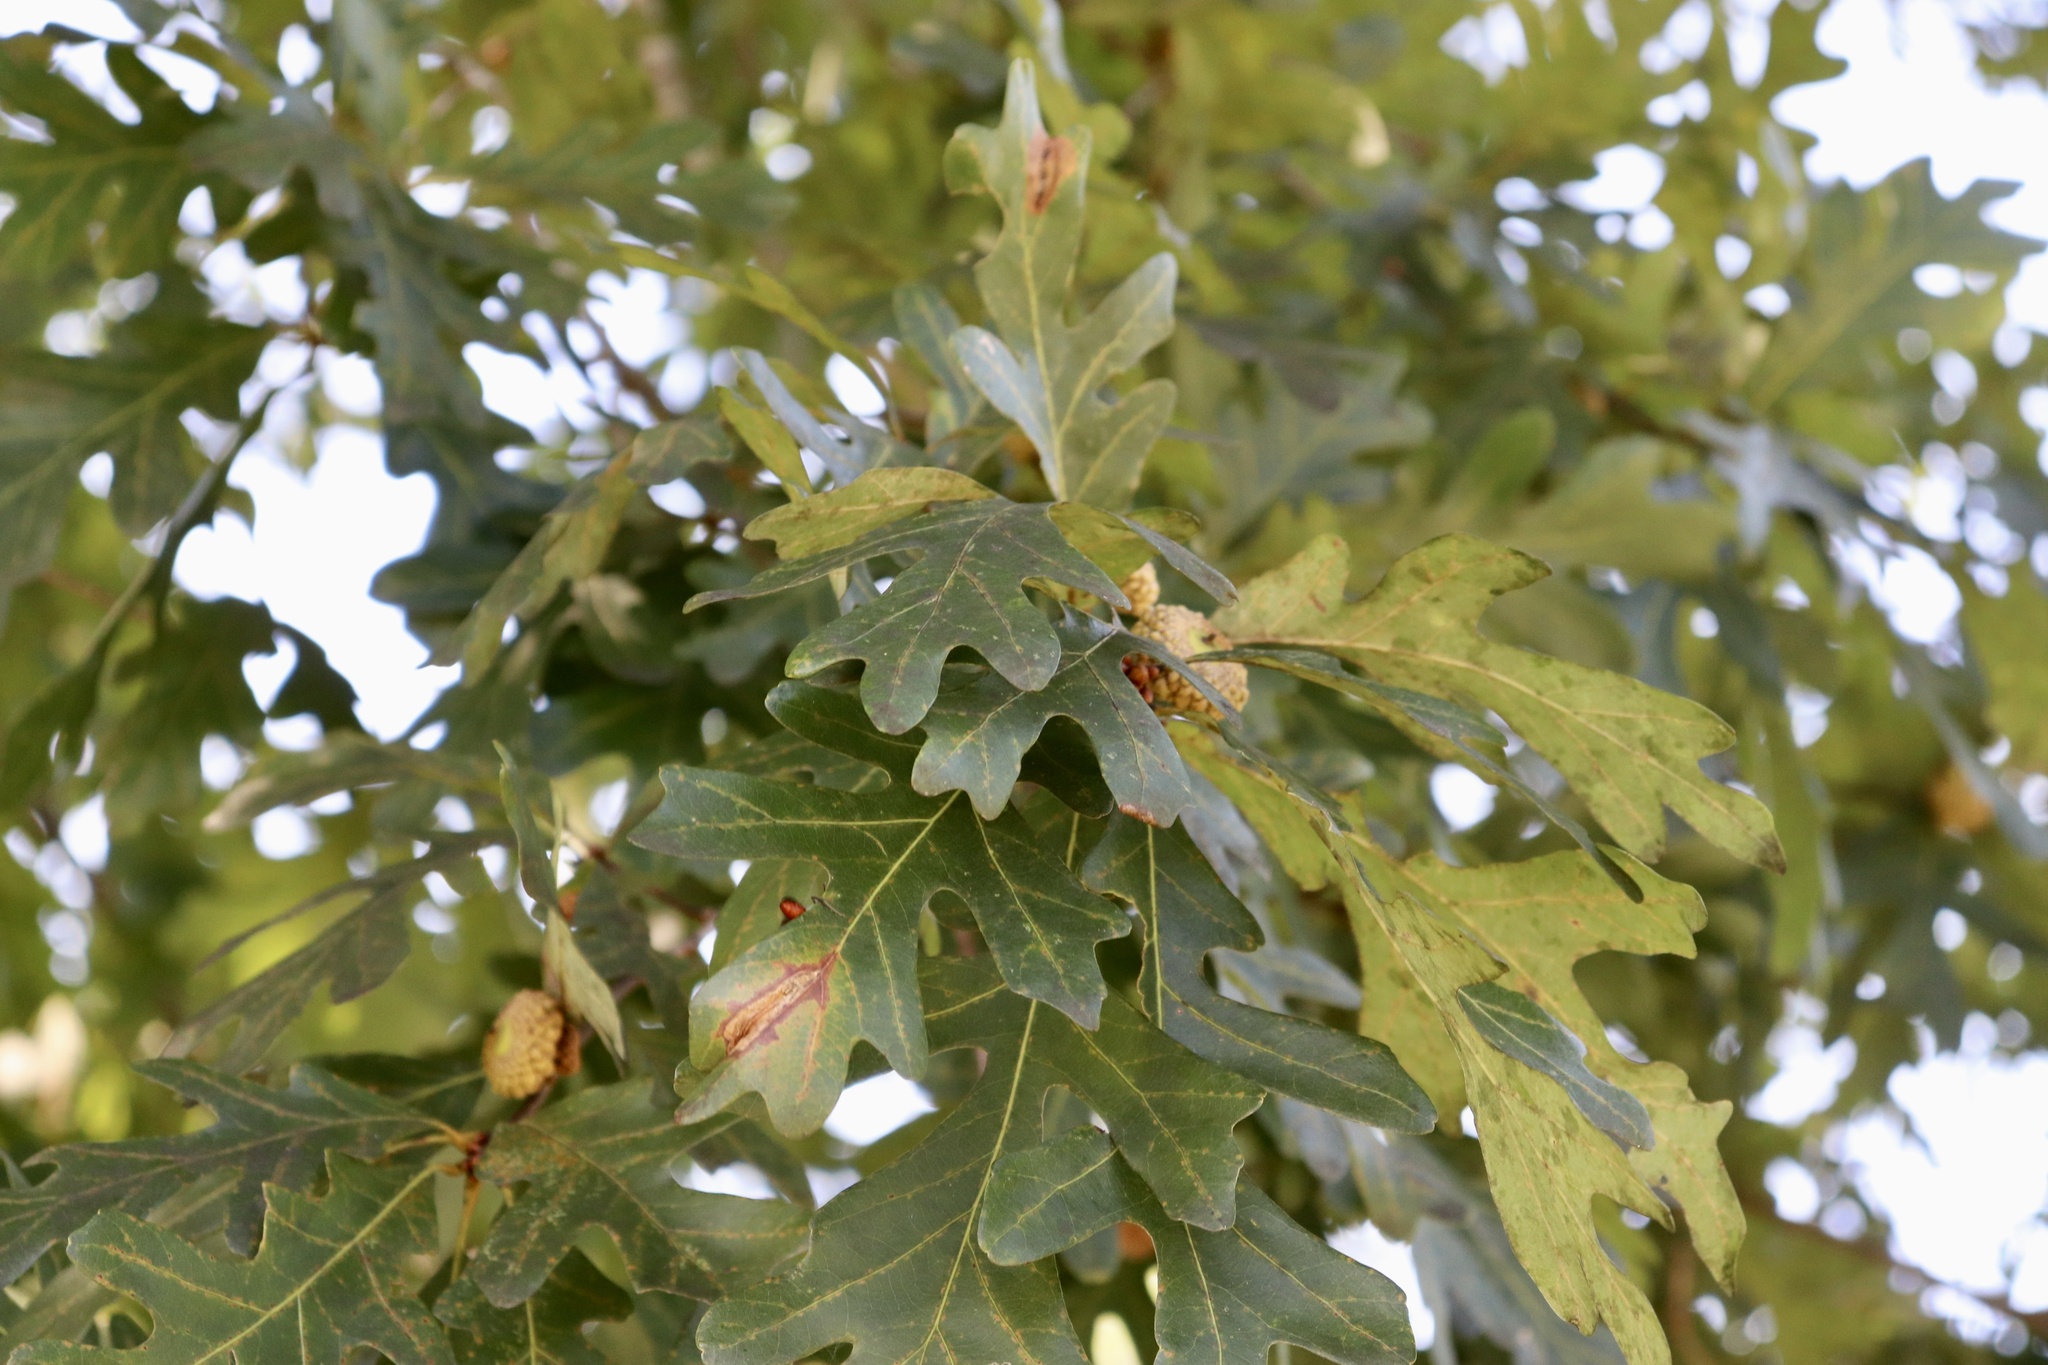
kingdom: Plantae
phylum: Tracheophyta
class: Magnoliopsida
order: Fagales
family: Fagaceae
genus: Quercus
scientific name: Quercus alba
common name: White oak
